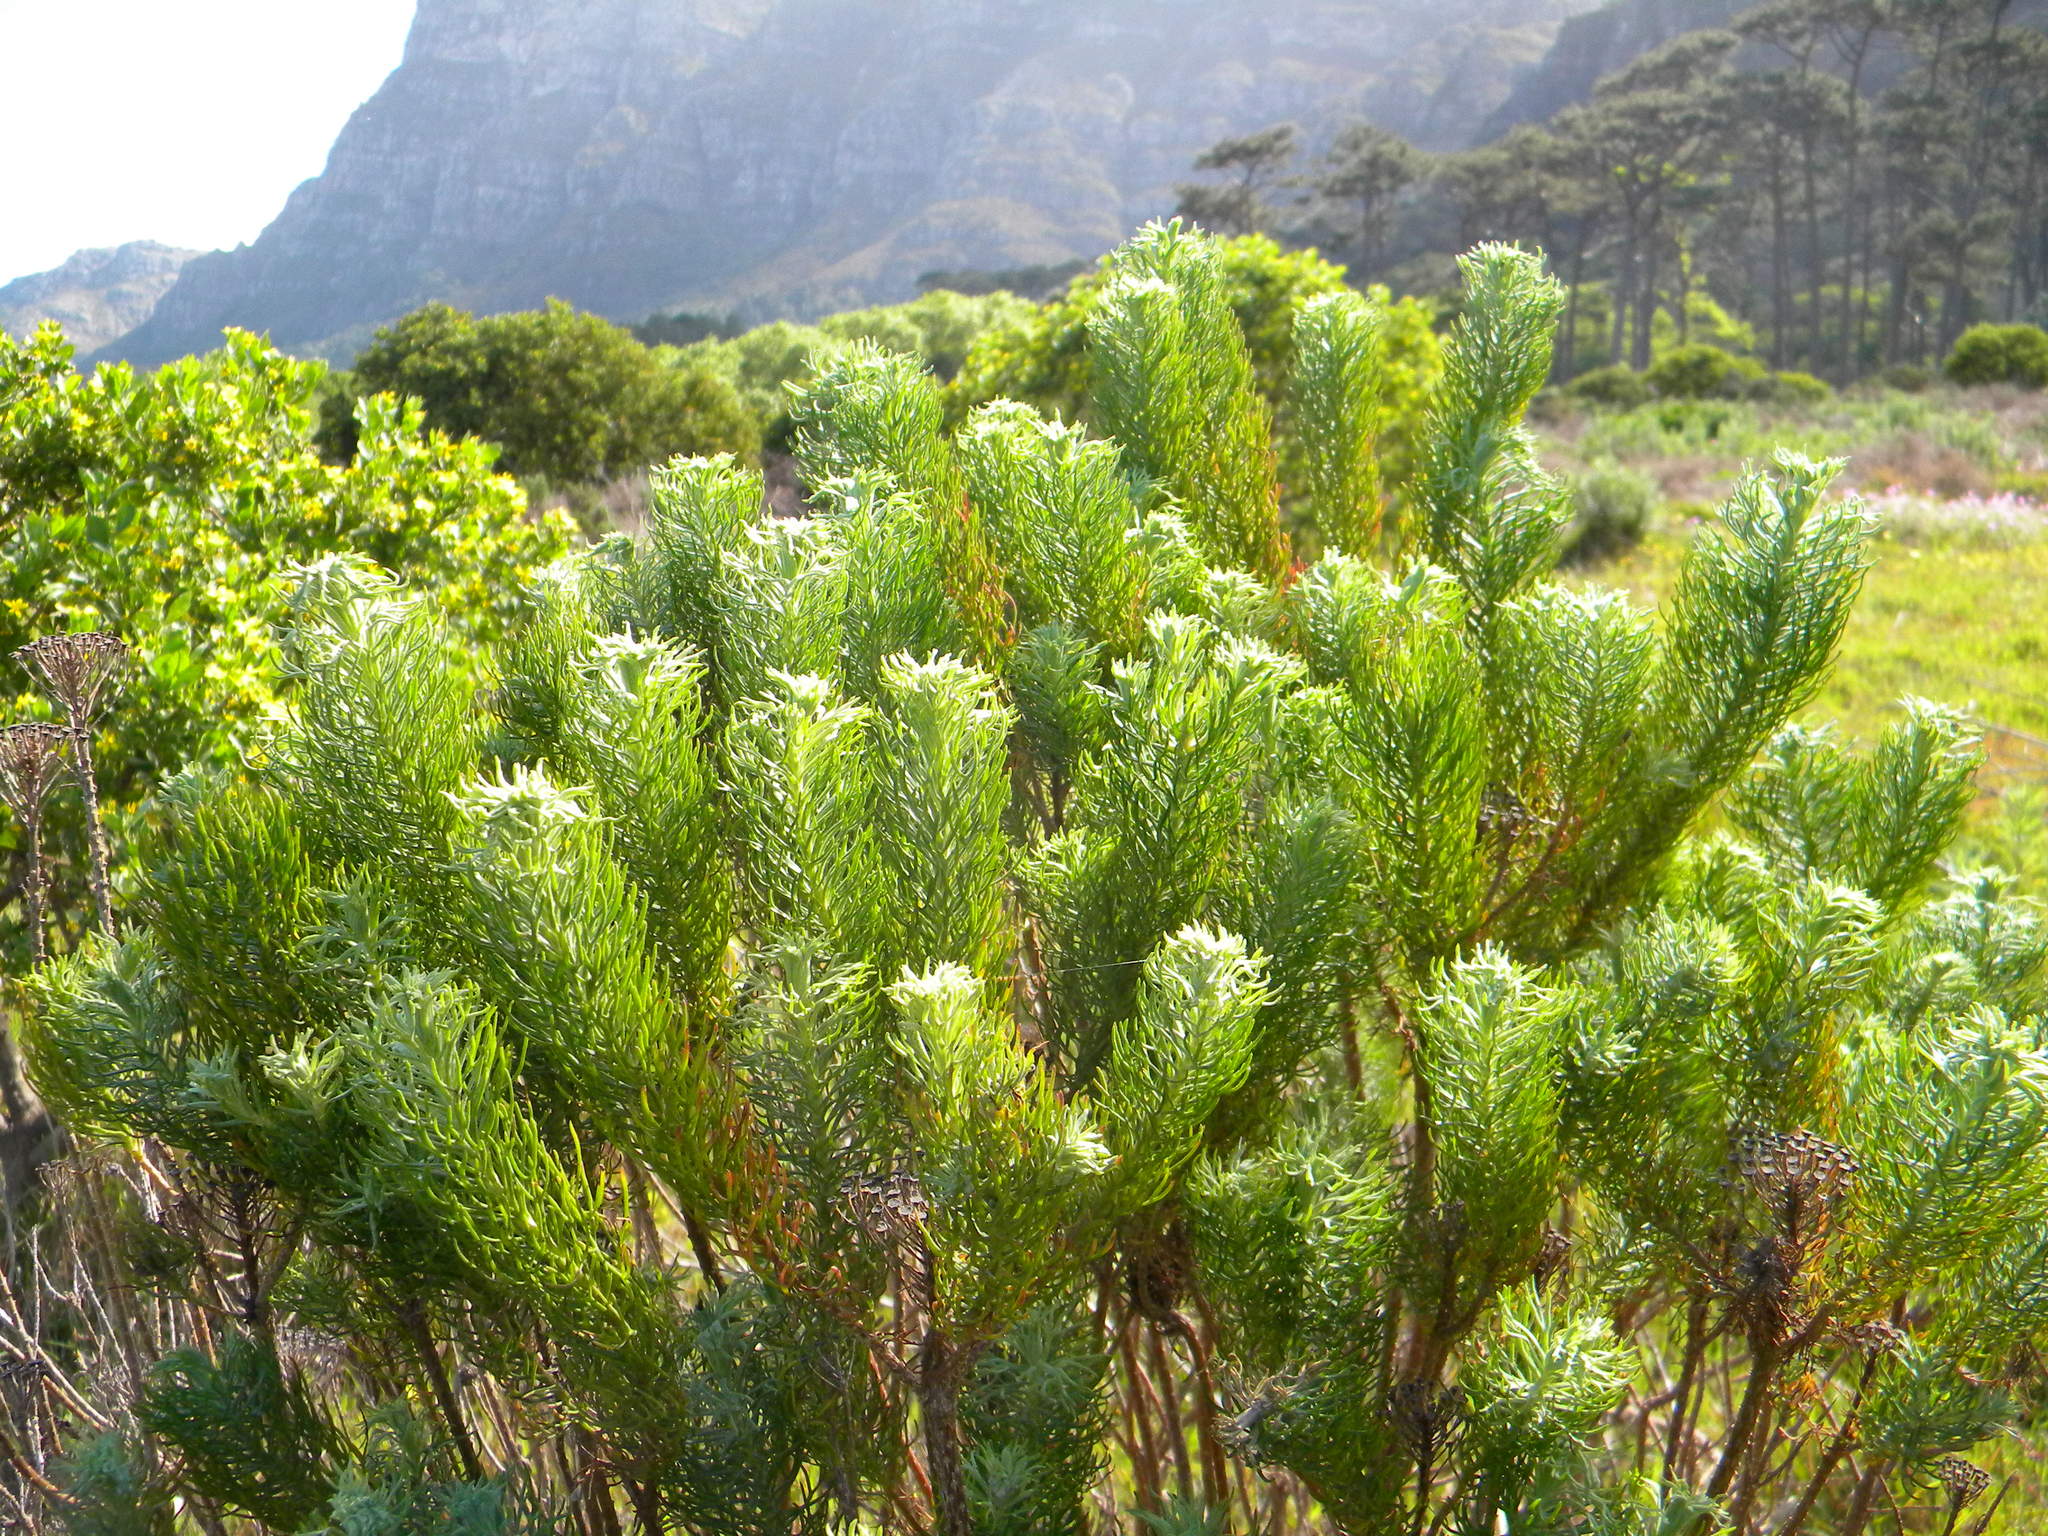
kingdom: Plantae
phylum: Tracheophyta
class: Magnoliopsida
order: Asterales
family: Asteraceae
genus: Athanasia
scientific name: Athanasia crithmifolia
